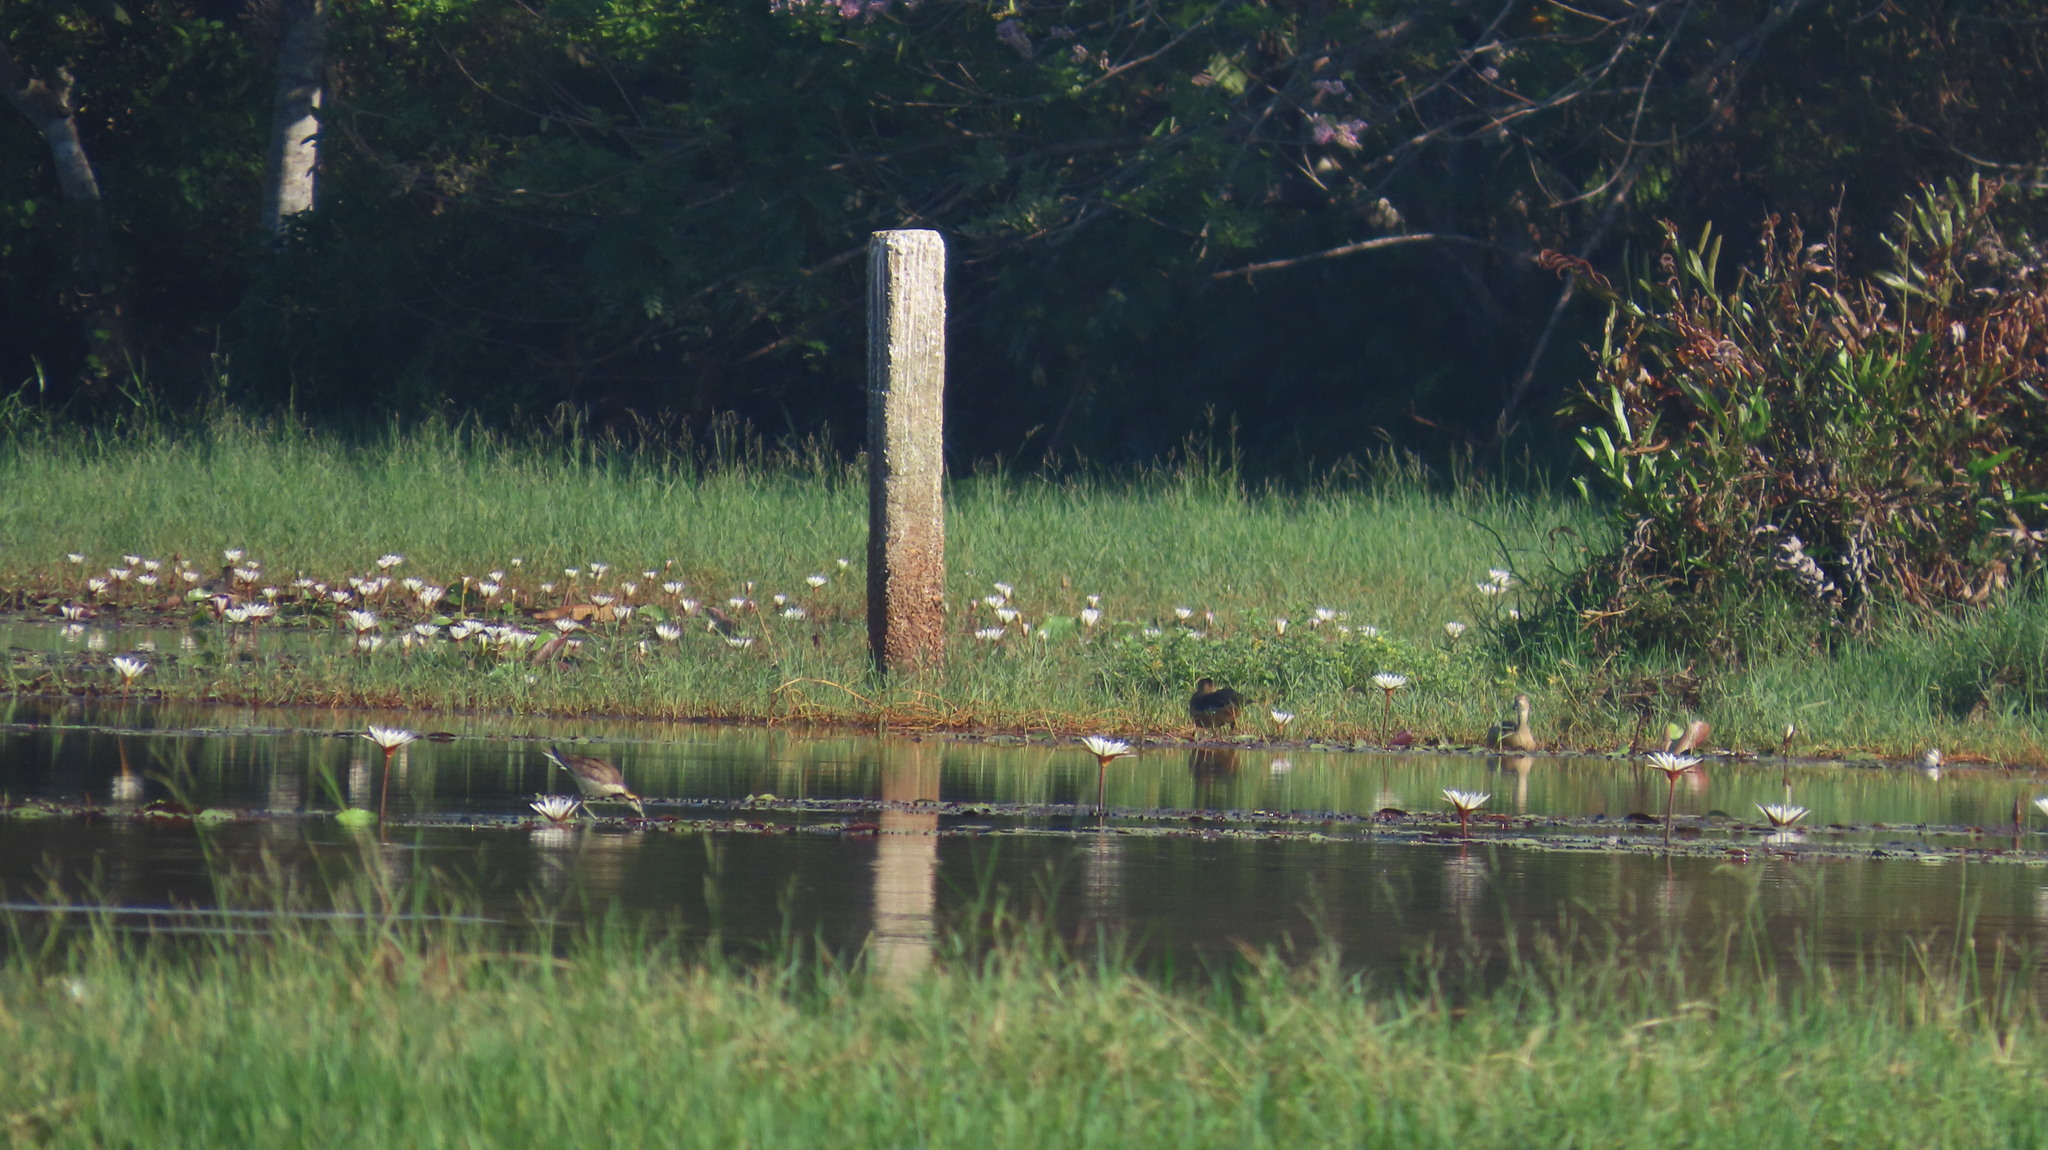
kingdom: Animalia
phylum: Chordata
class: Aves
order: Anseriformes
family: Anatidae
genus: Dendrocygna
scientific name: Dendrocygna javanica
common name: Lesser whistling-duck
